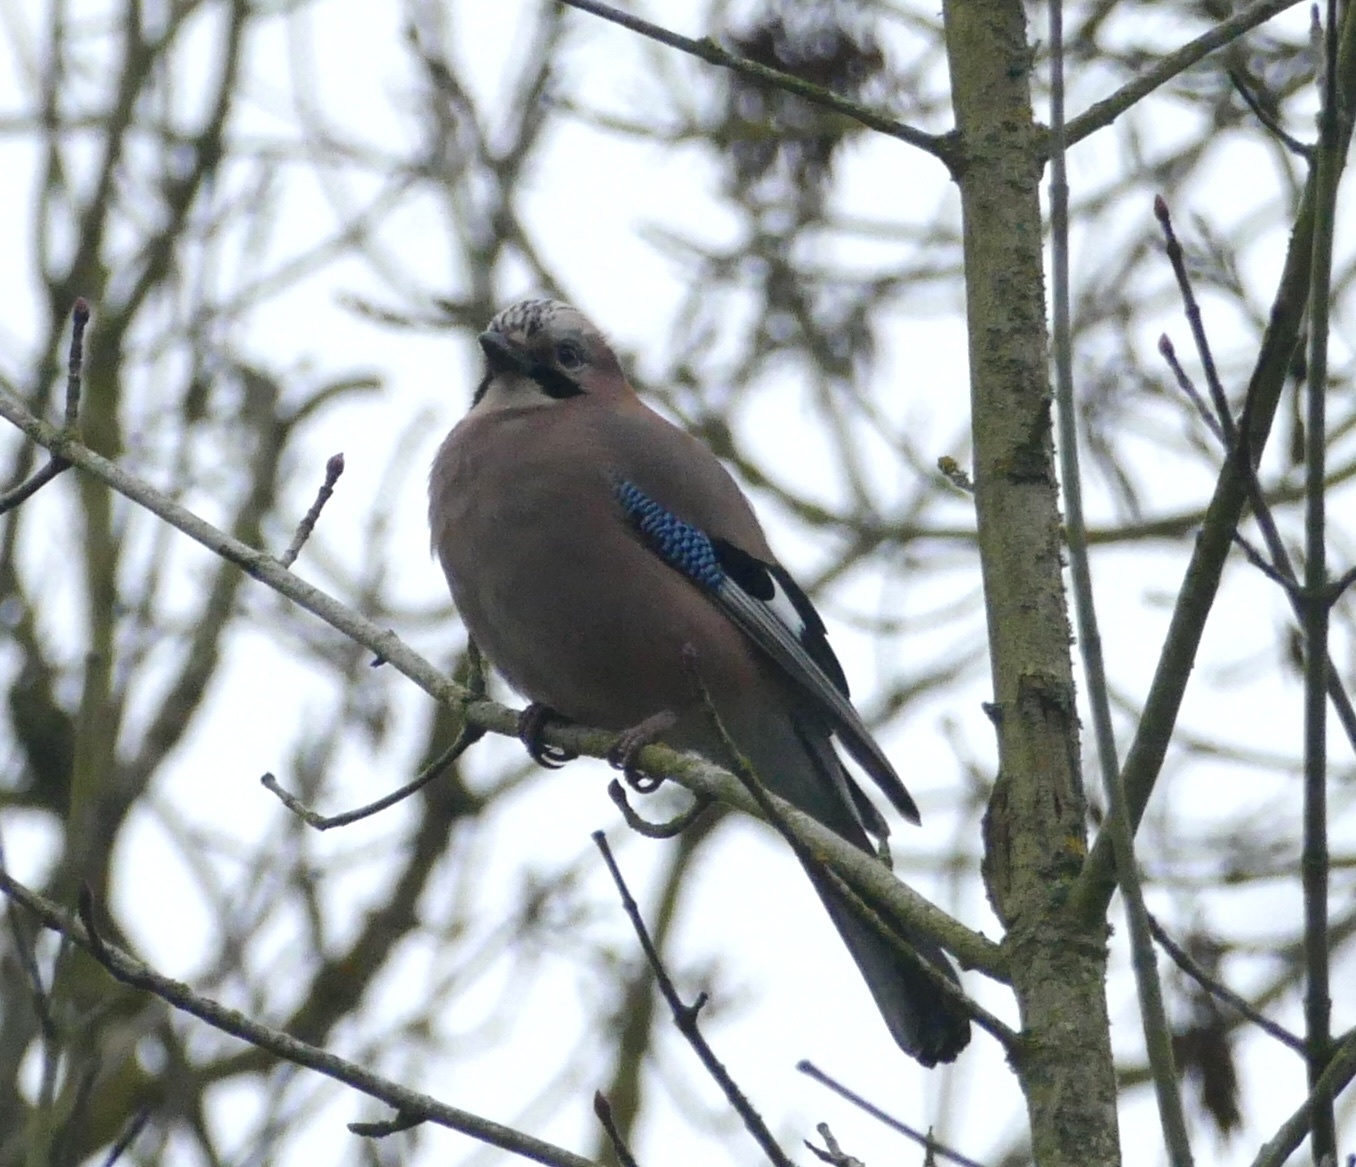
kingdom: Animalia
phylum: Chordata
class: Aves
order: Passeriformes
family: Corvidae
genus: Garrulus
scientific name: Garrulus glandarius
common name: Eurasian jay
